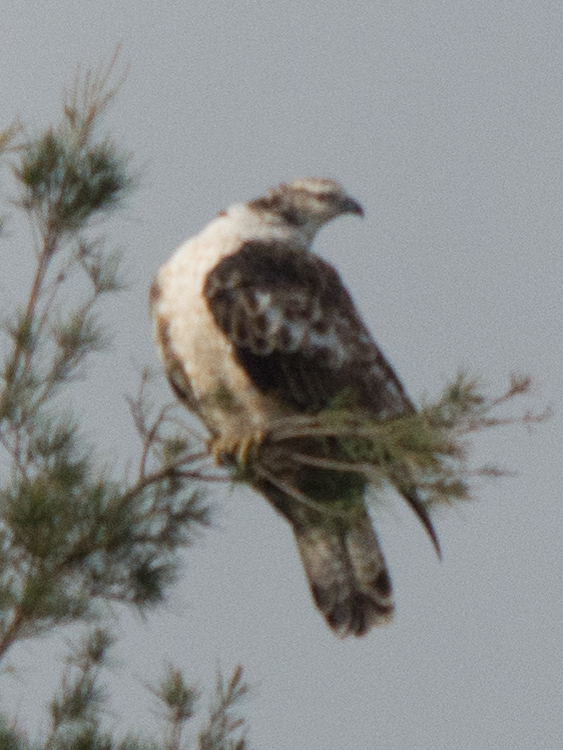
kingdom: Animalia
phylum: Chordata
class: Aves
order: Accipitriformes
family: Accipitridae
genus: Pernis
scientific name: Pernis ptilorhynchus
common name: Crested honey buzzard
